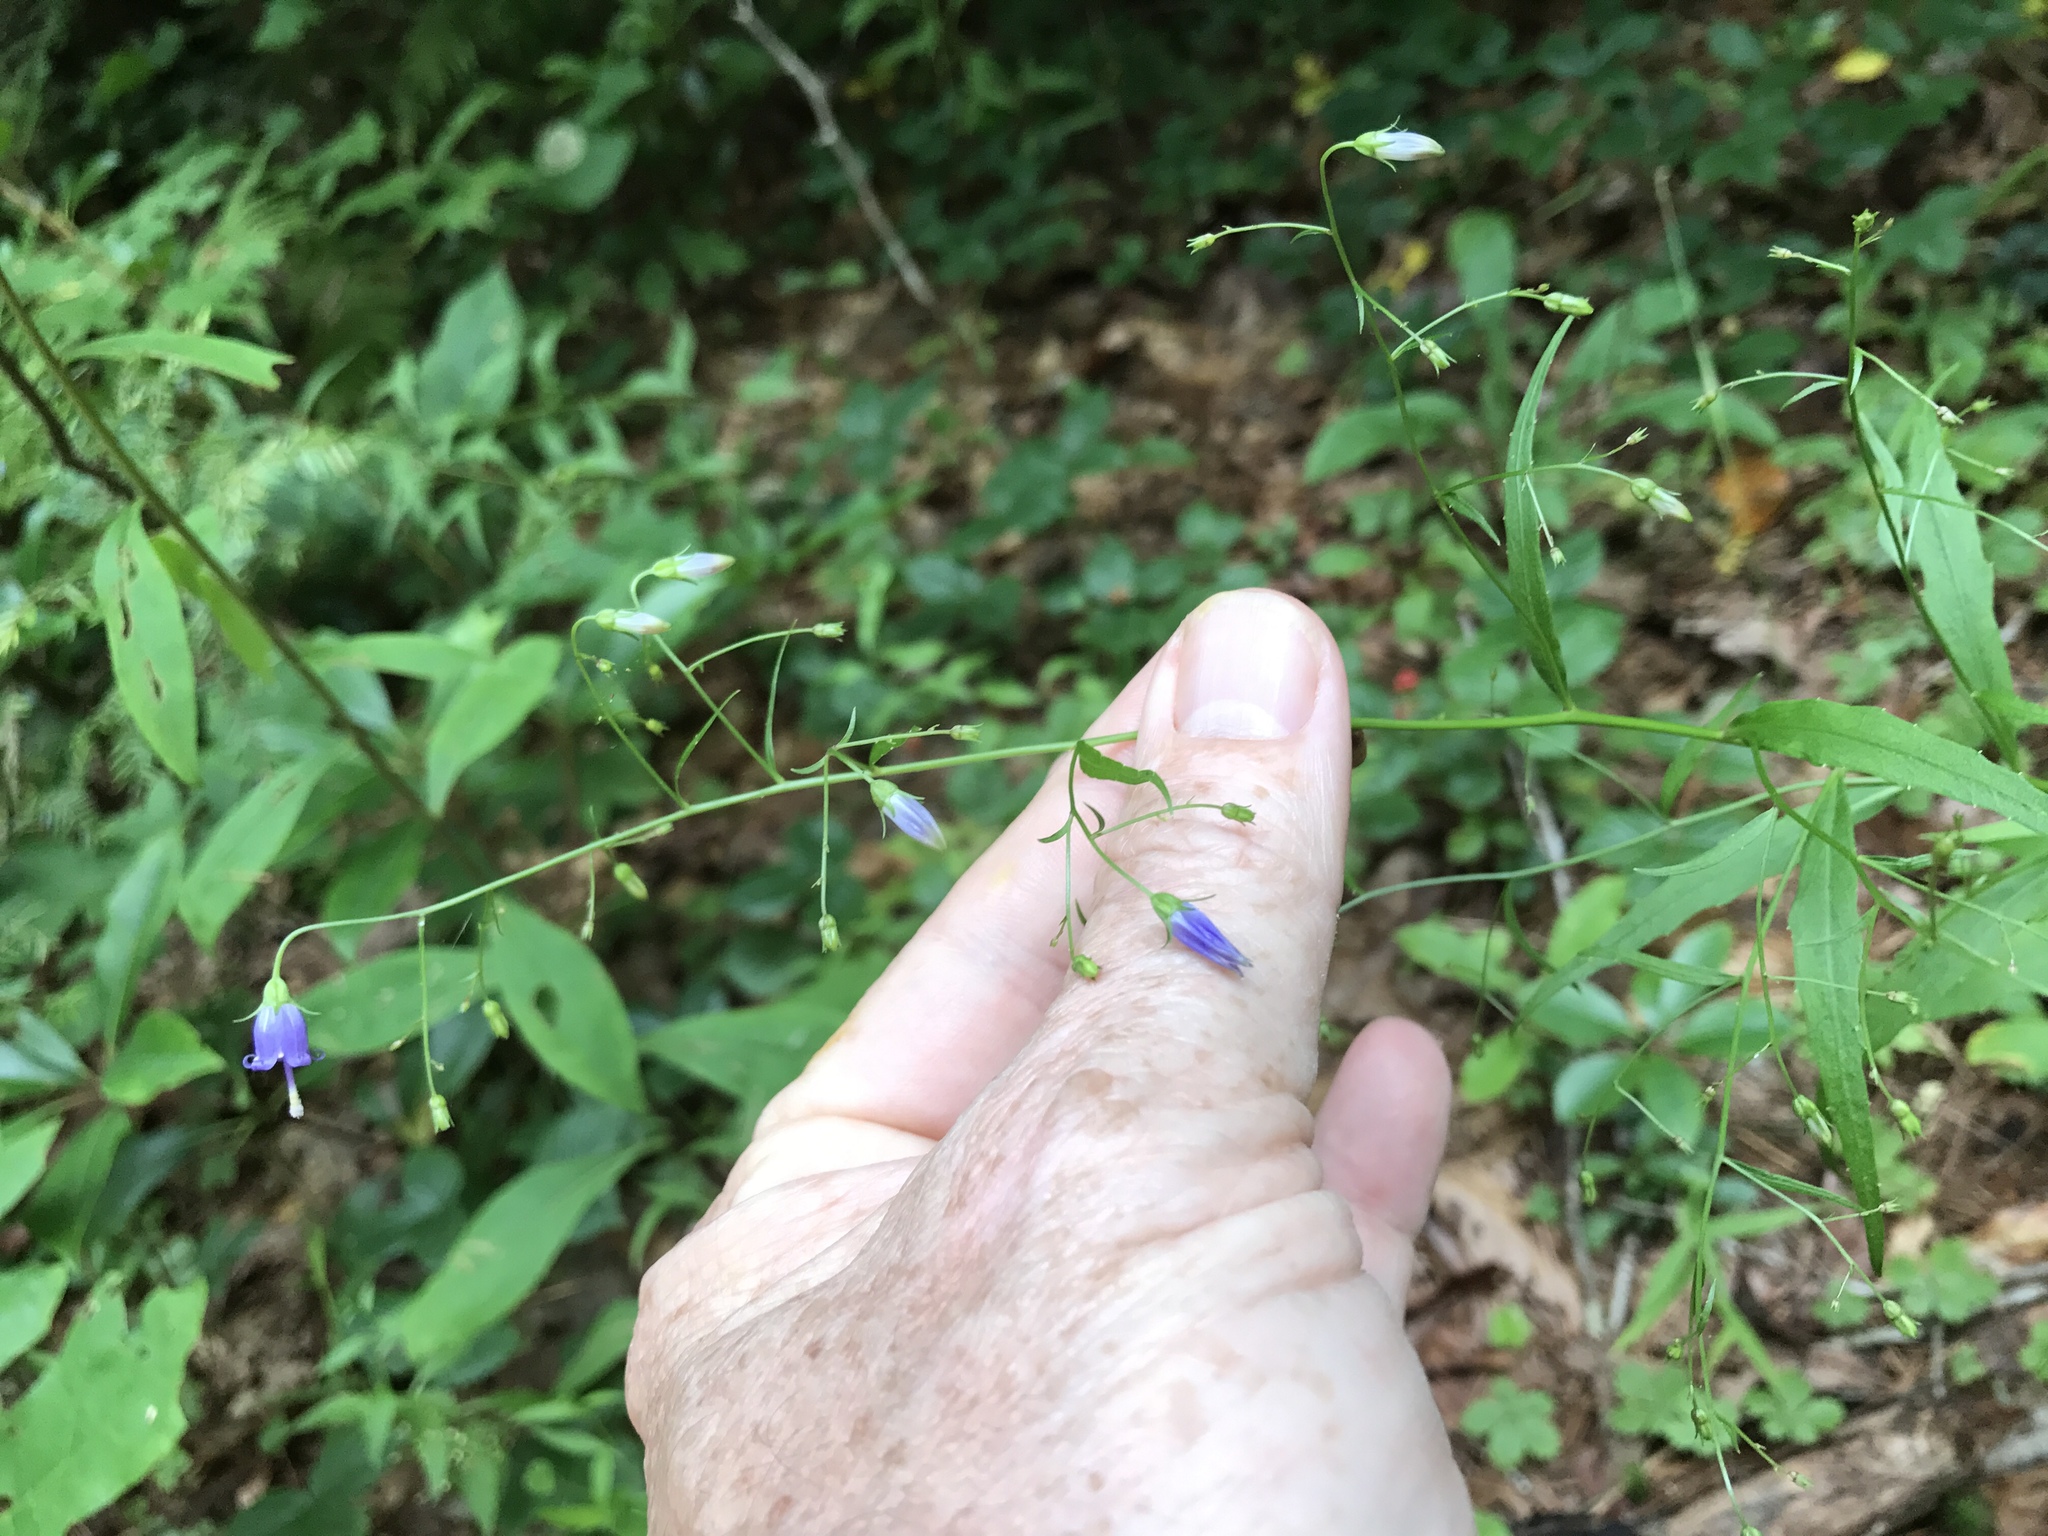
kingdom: Plantae
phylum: Tracheophyta
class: Magnoliopsida
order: Asterales
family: Campanulaceae
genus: Campanula
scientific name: Campanula divaricata
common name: Appalachian bellflower
